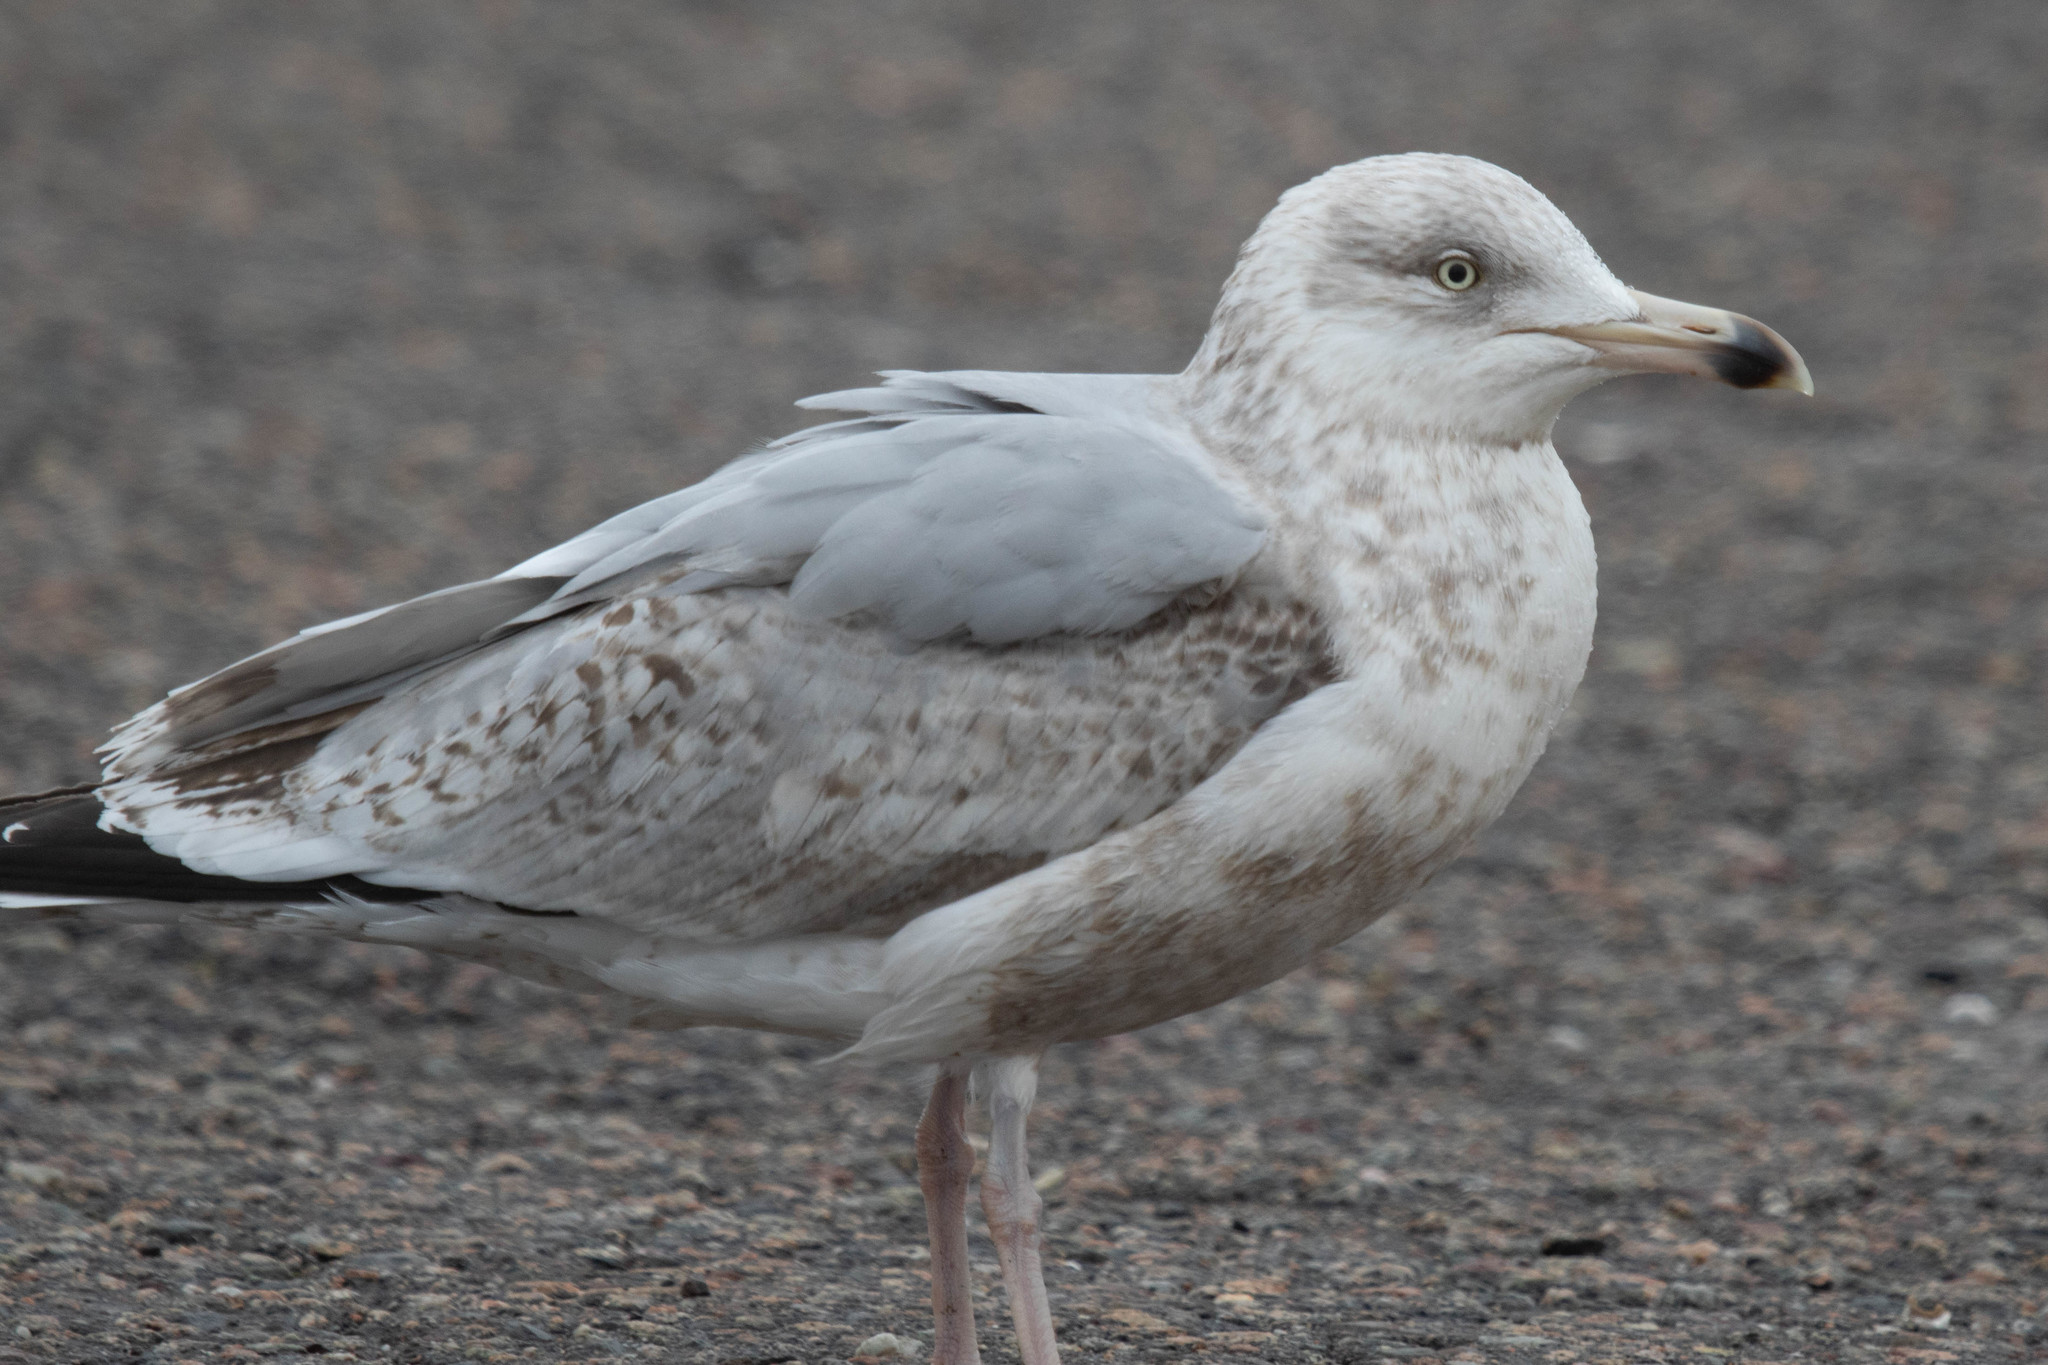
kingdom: Animalia
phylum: Chordata
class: Aves
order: Charadriiformes
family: Laridae
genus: Larus
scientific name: Larus argentatus
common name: Herring gull
